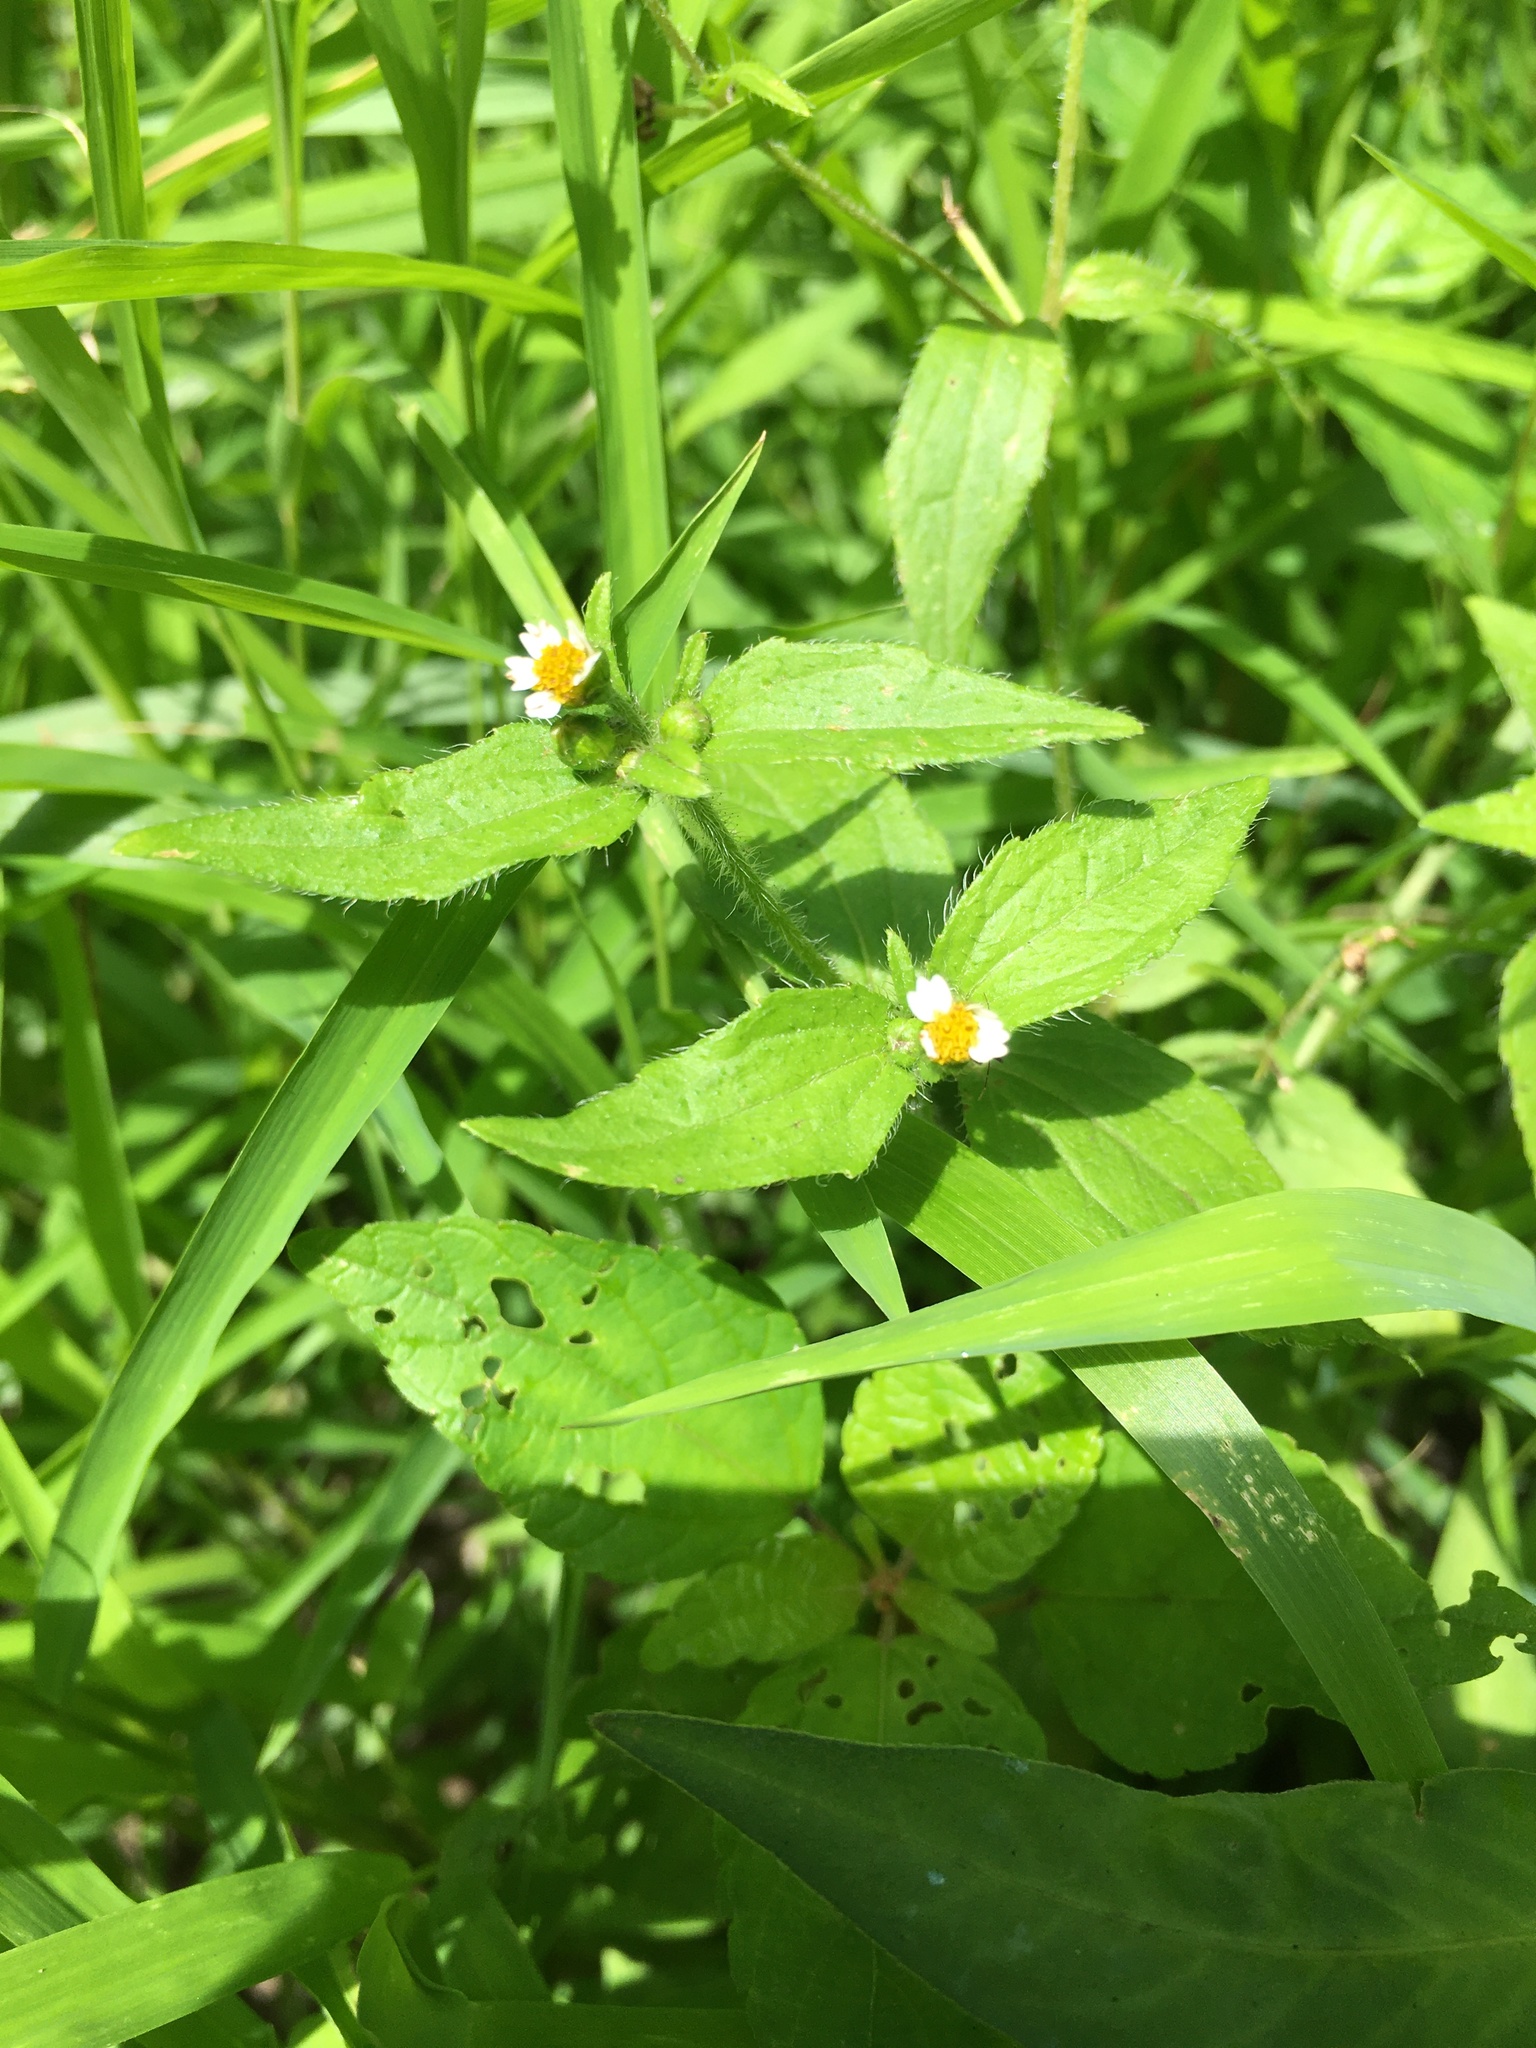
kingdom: Plantae
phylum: Tracheophyta
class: Magnoliopsida
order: Asterales
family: Asteraceae
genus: Galinsoga
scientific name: Galinsoga quadriradiata
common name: Shaggy soldier
